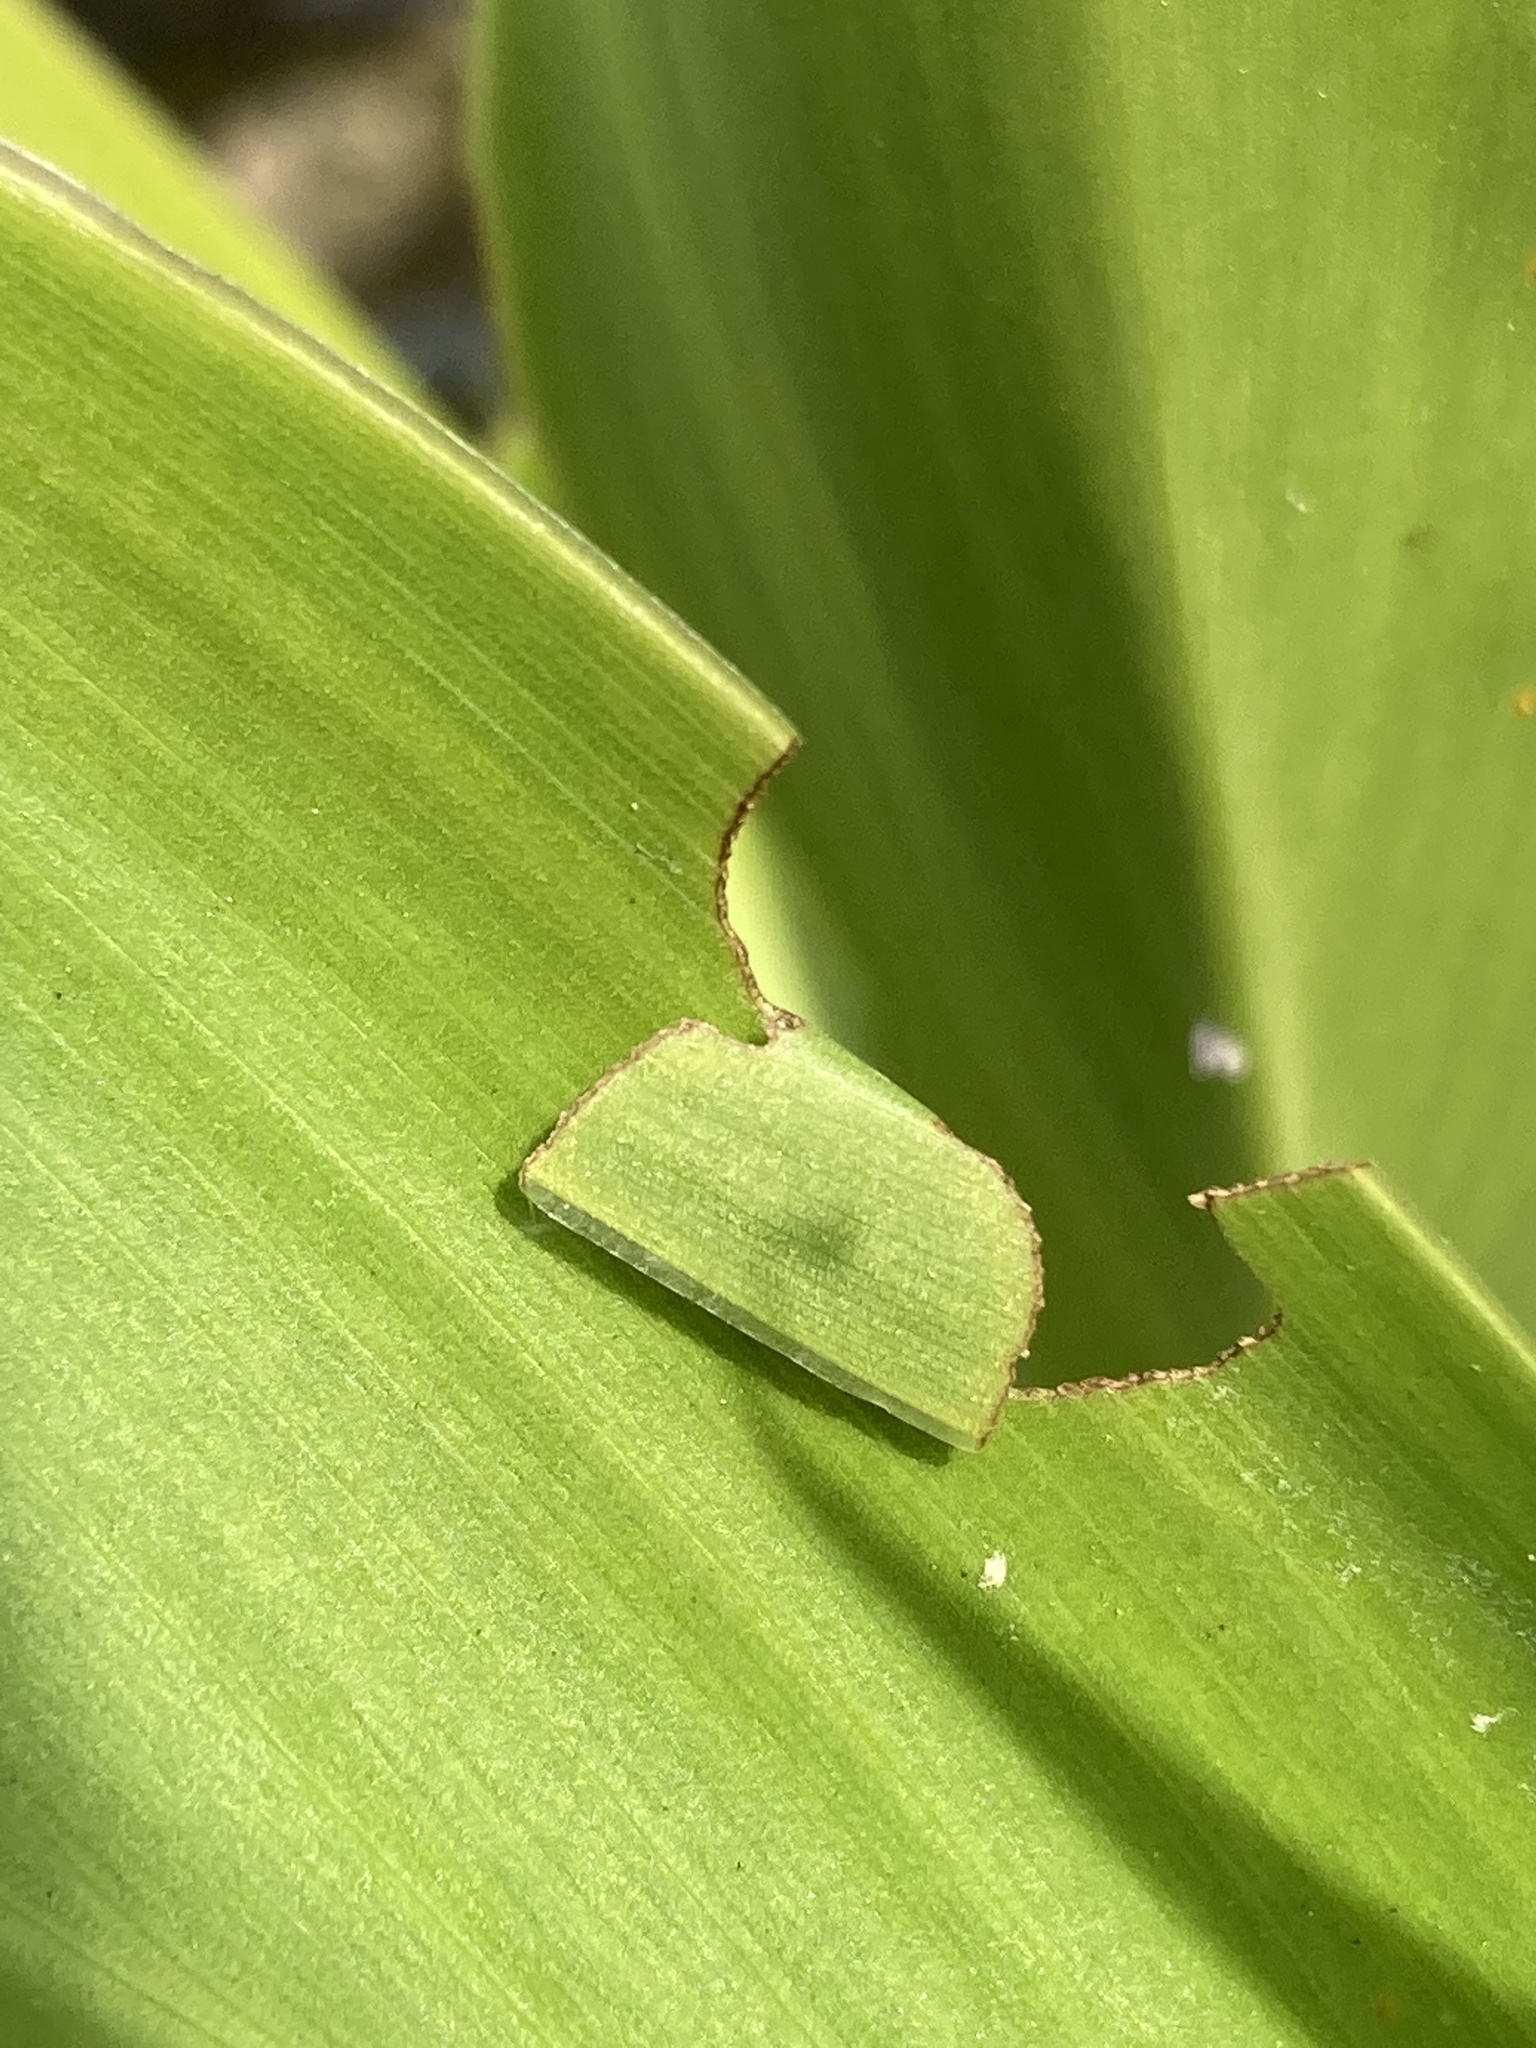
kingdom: Animalia
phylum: Arthropoda
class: Insecta
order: Lepidoptera
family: Hesperiidae
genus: Calpodes
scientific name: Calpodes ethlius
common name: Brazilian skipper
